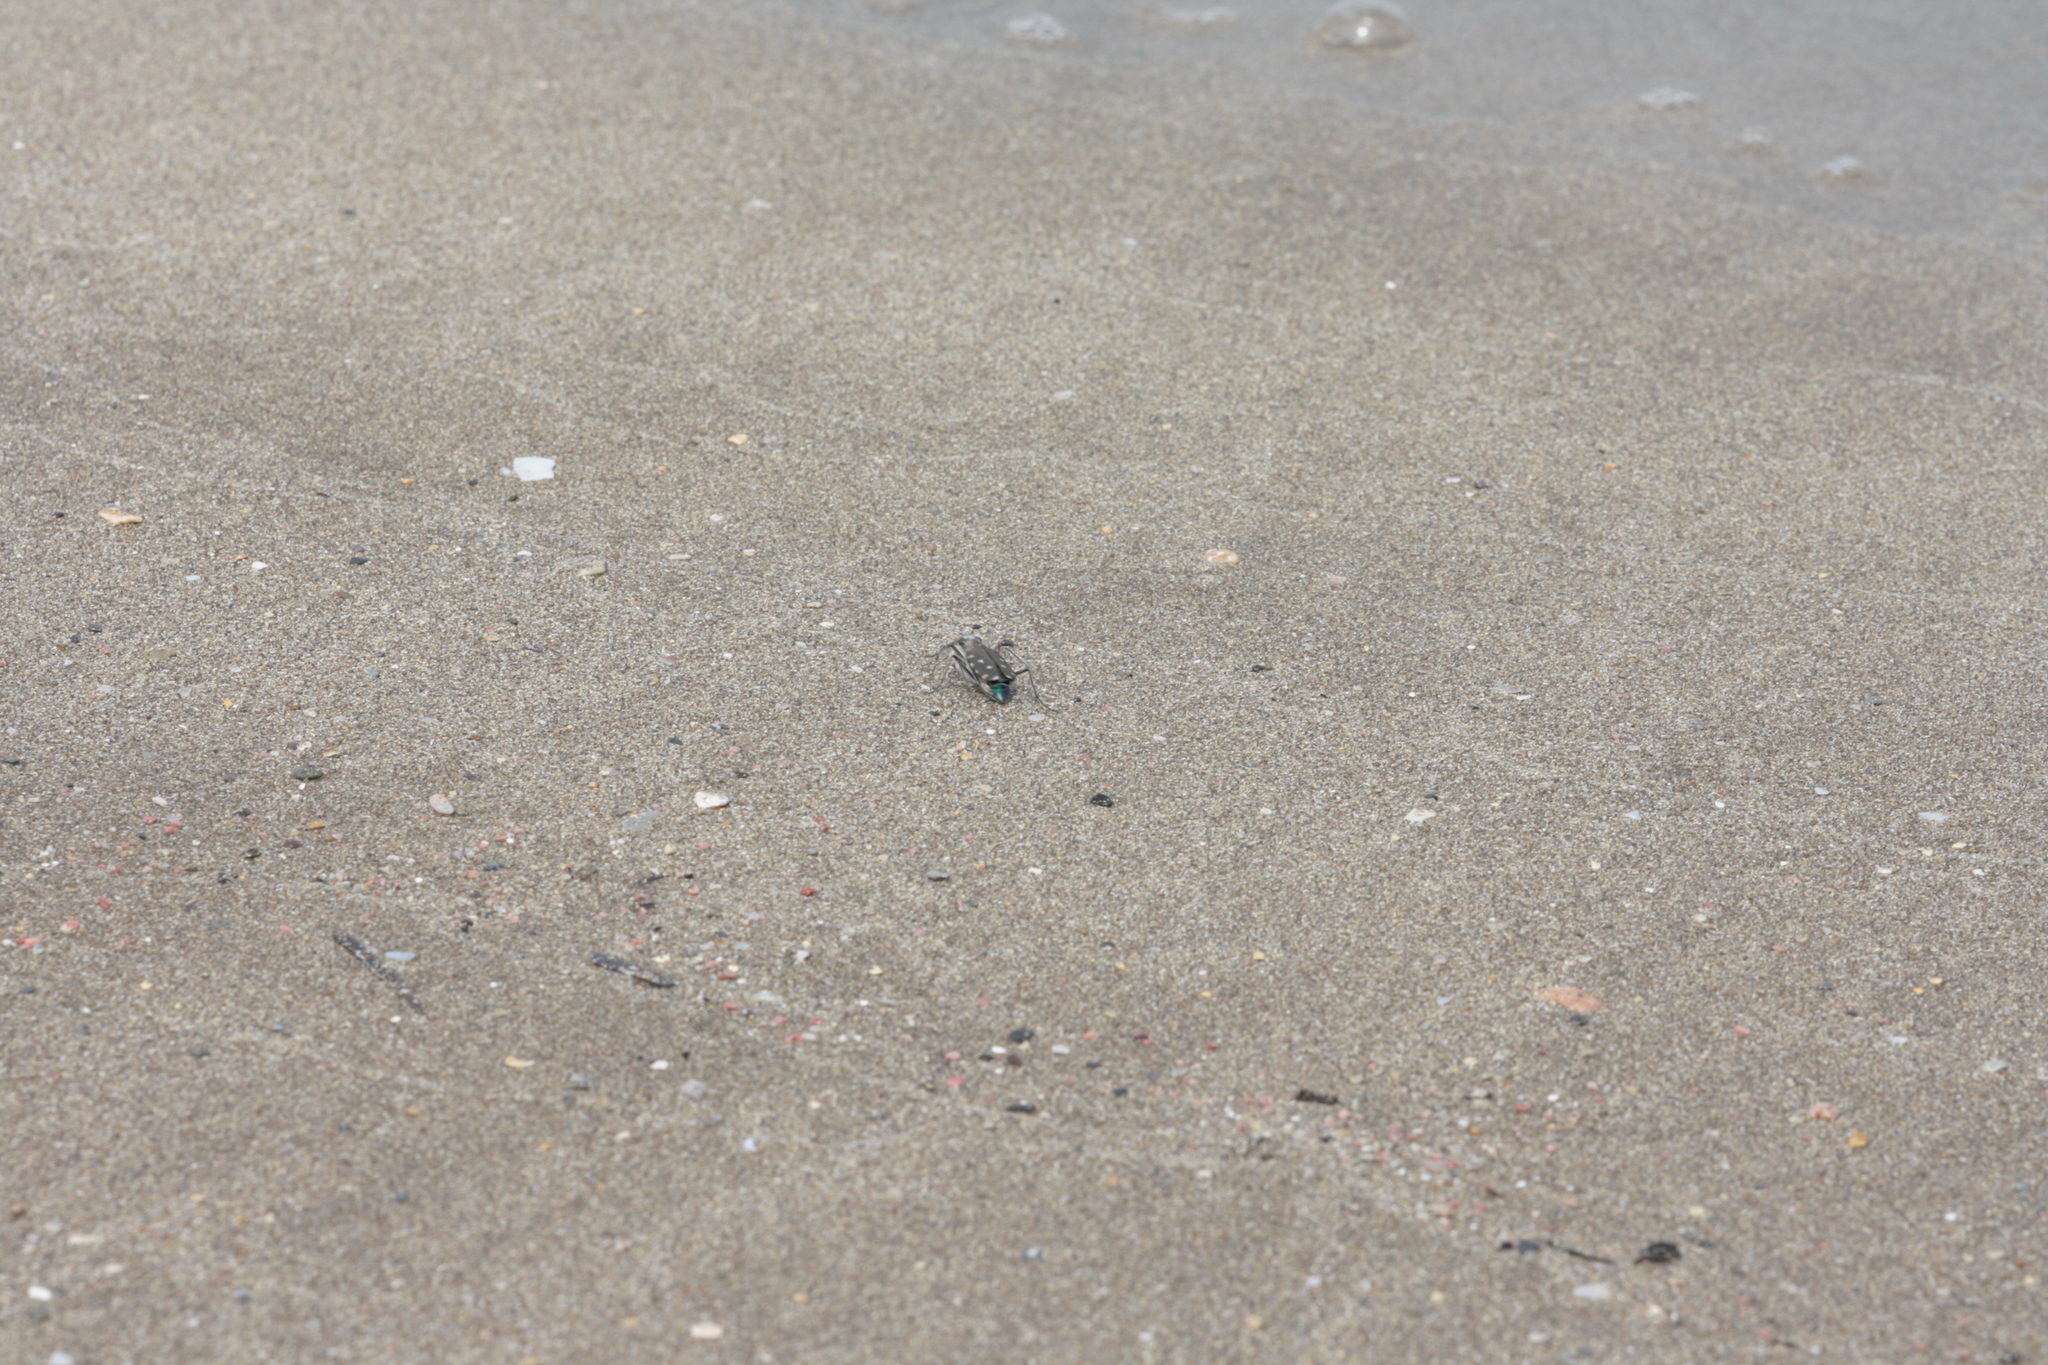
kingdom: Animalia
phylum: Arthropoda
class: Insecta
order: Coleoptera
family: Carabidae
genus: Cicindela
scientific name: Cicindela littoralis
